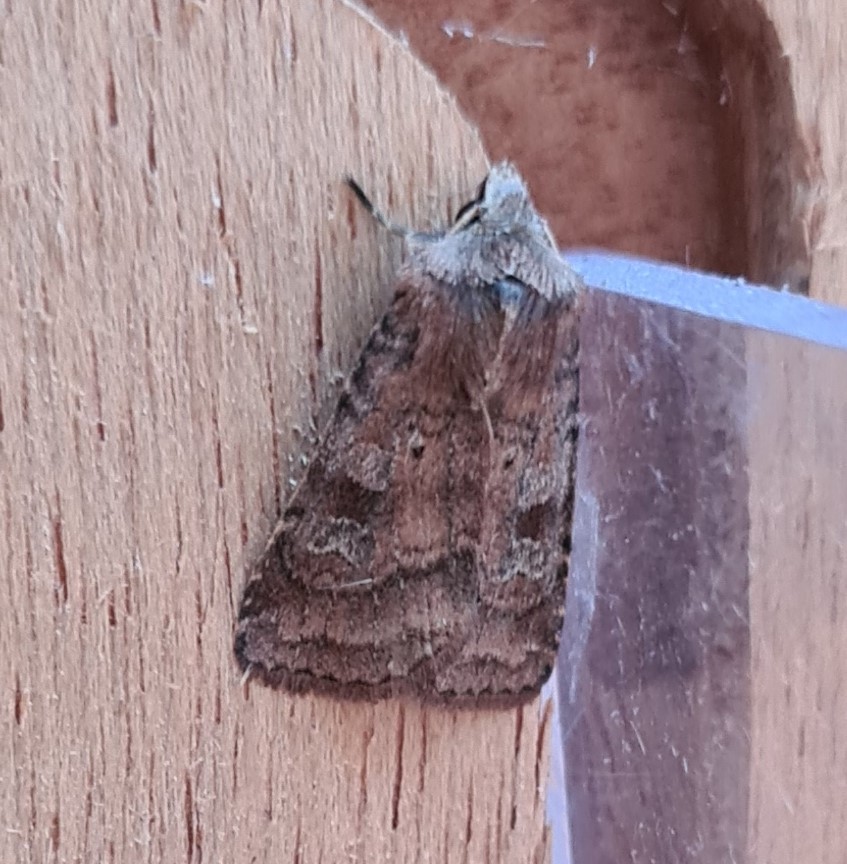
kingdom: Animalia
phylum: Arthropoda
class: Insecta
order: Lepidoptera
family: Noctuidae
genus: Diarsia
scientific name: Diarsia rubi
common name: Small square-spot
